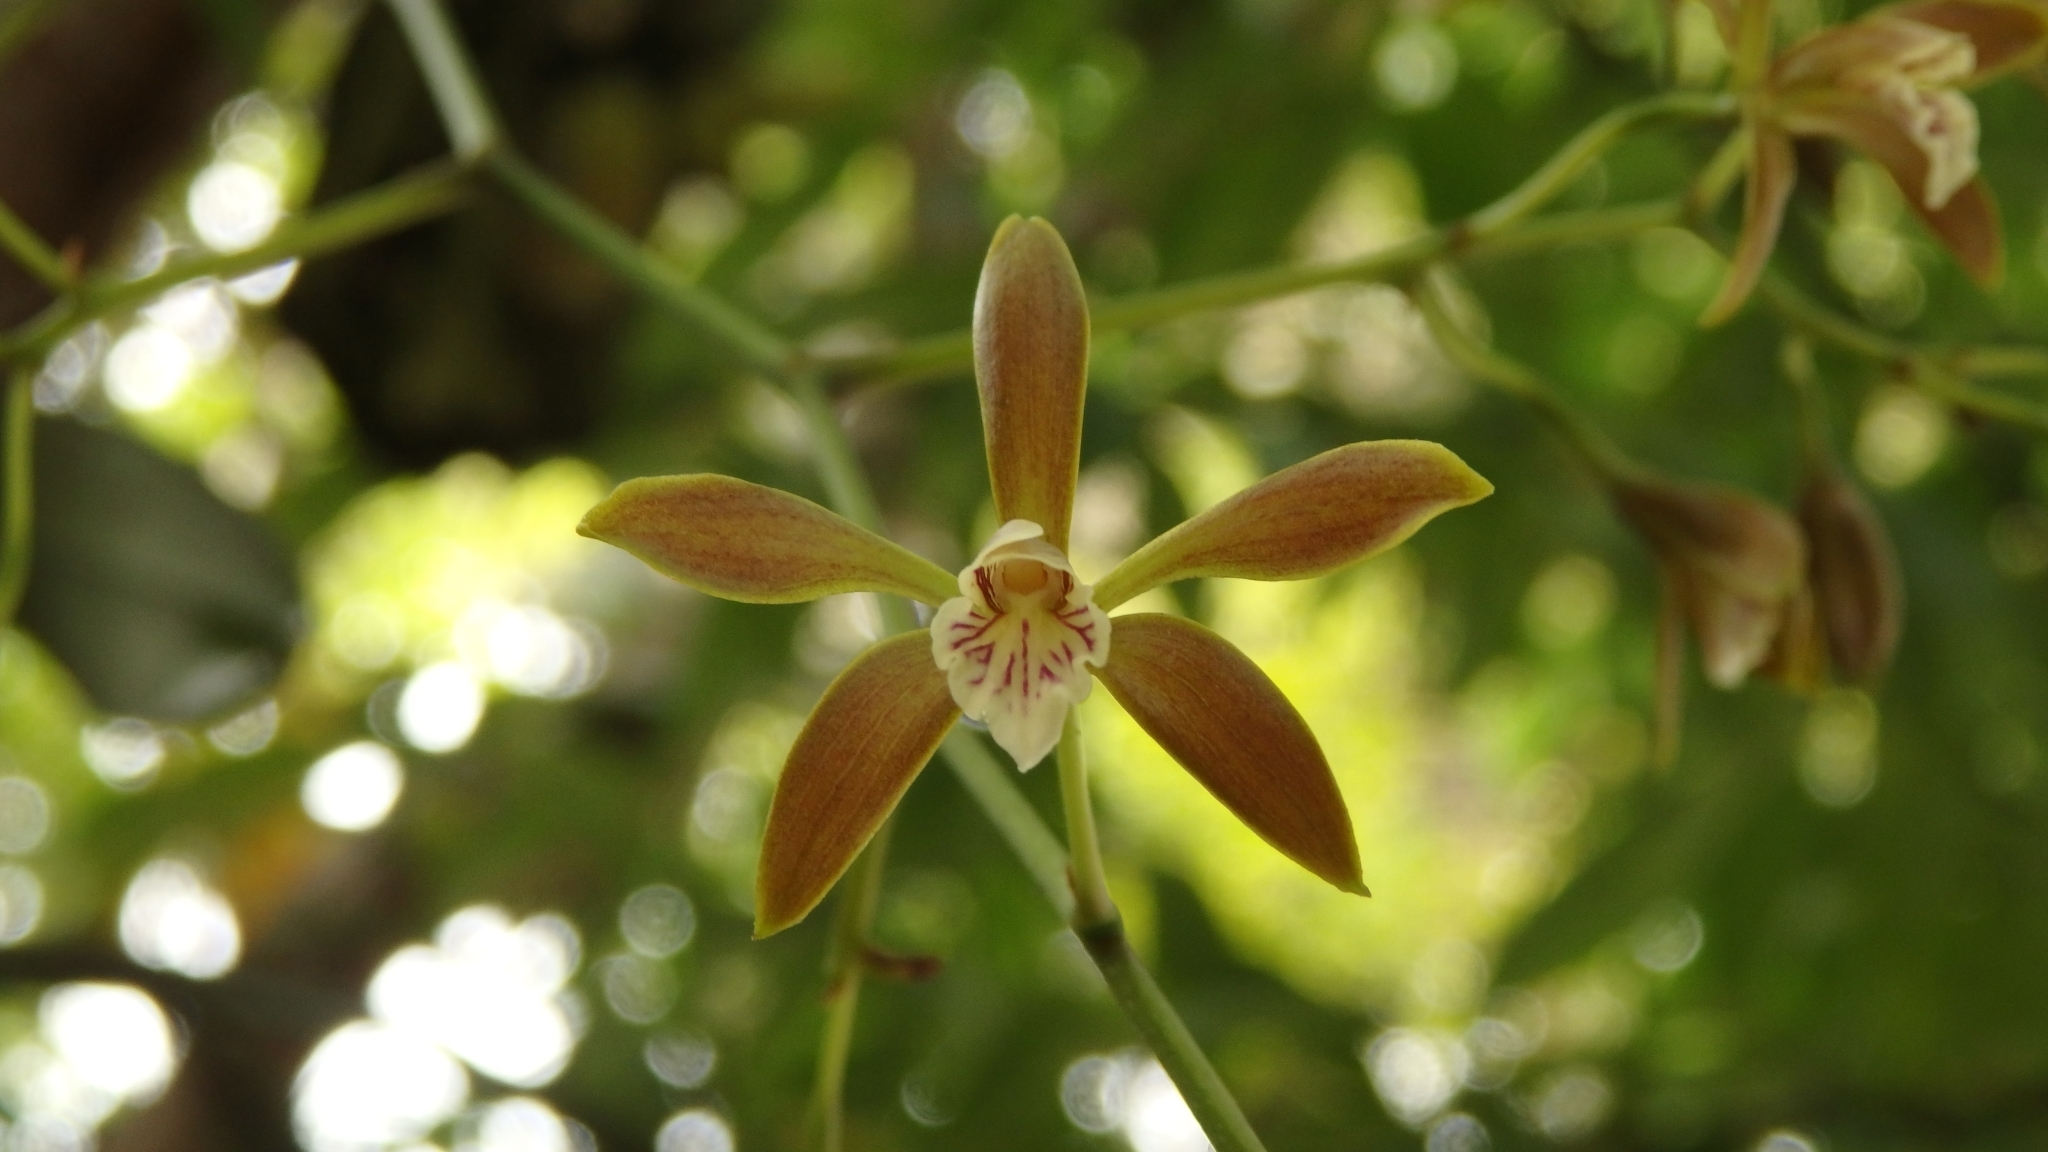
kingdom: Plantae
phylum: Tracheophyta
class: Liliopsida
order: Asparagales
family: Orchidaceae
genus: Encyclia
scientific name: Encyclia candollei
